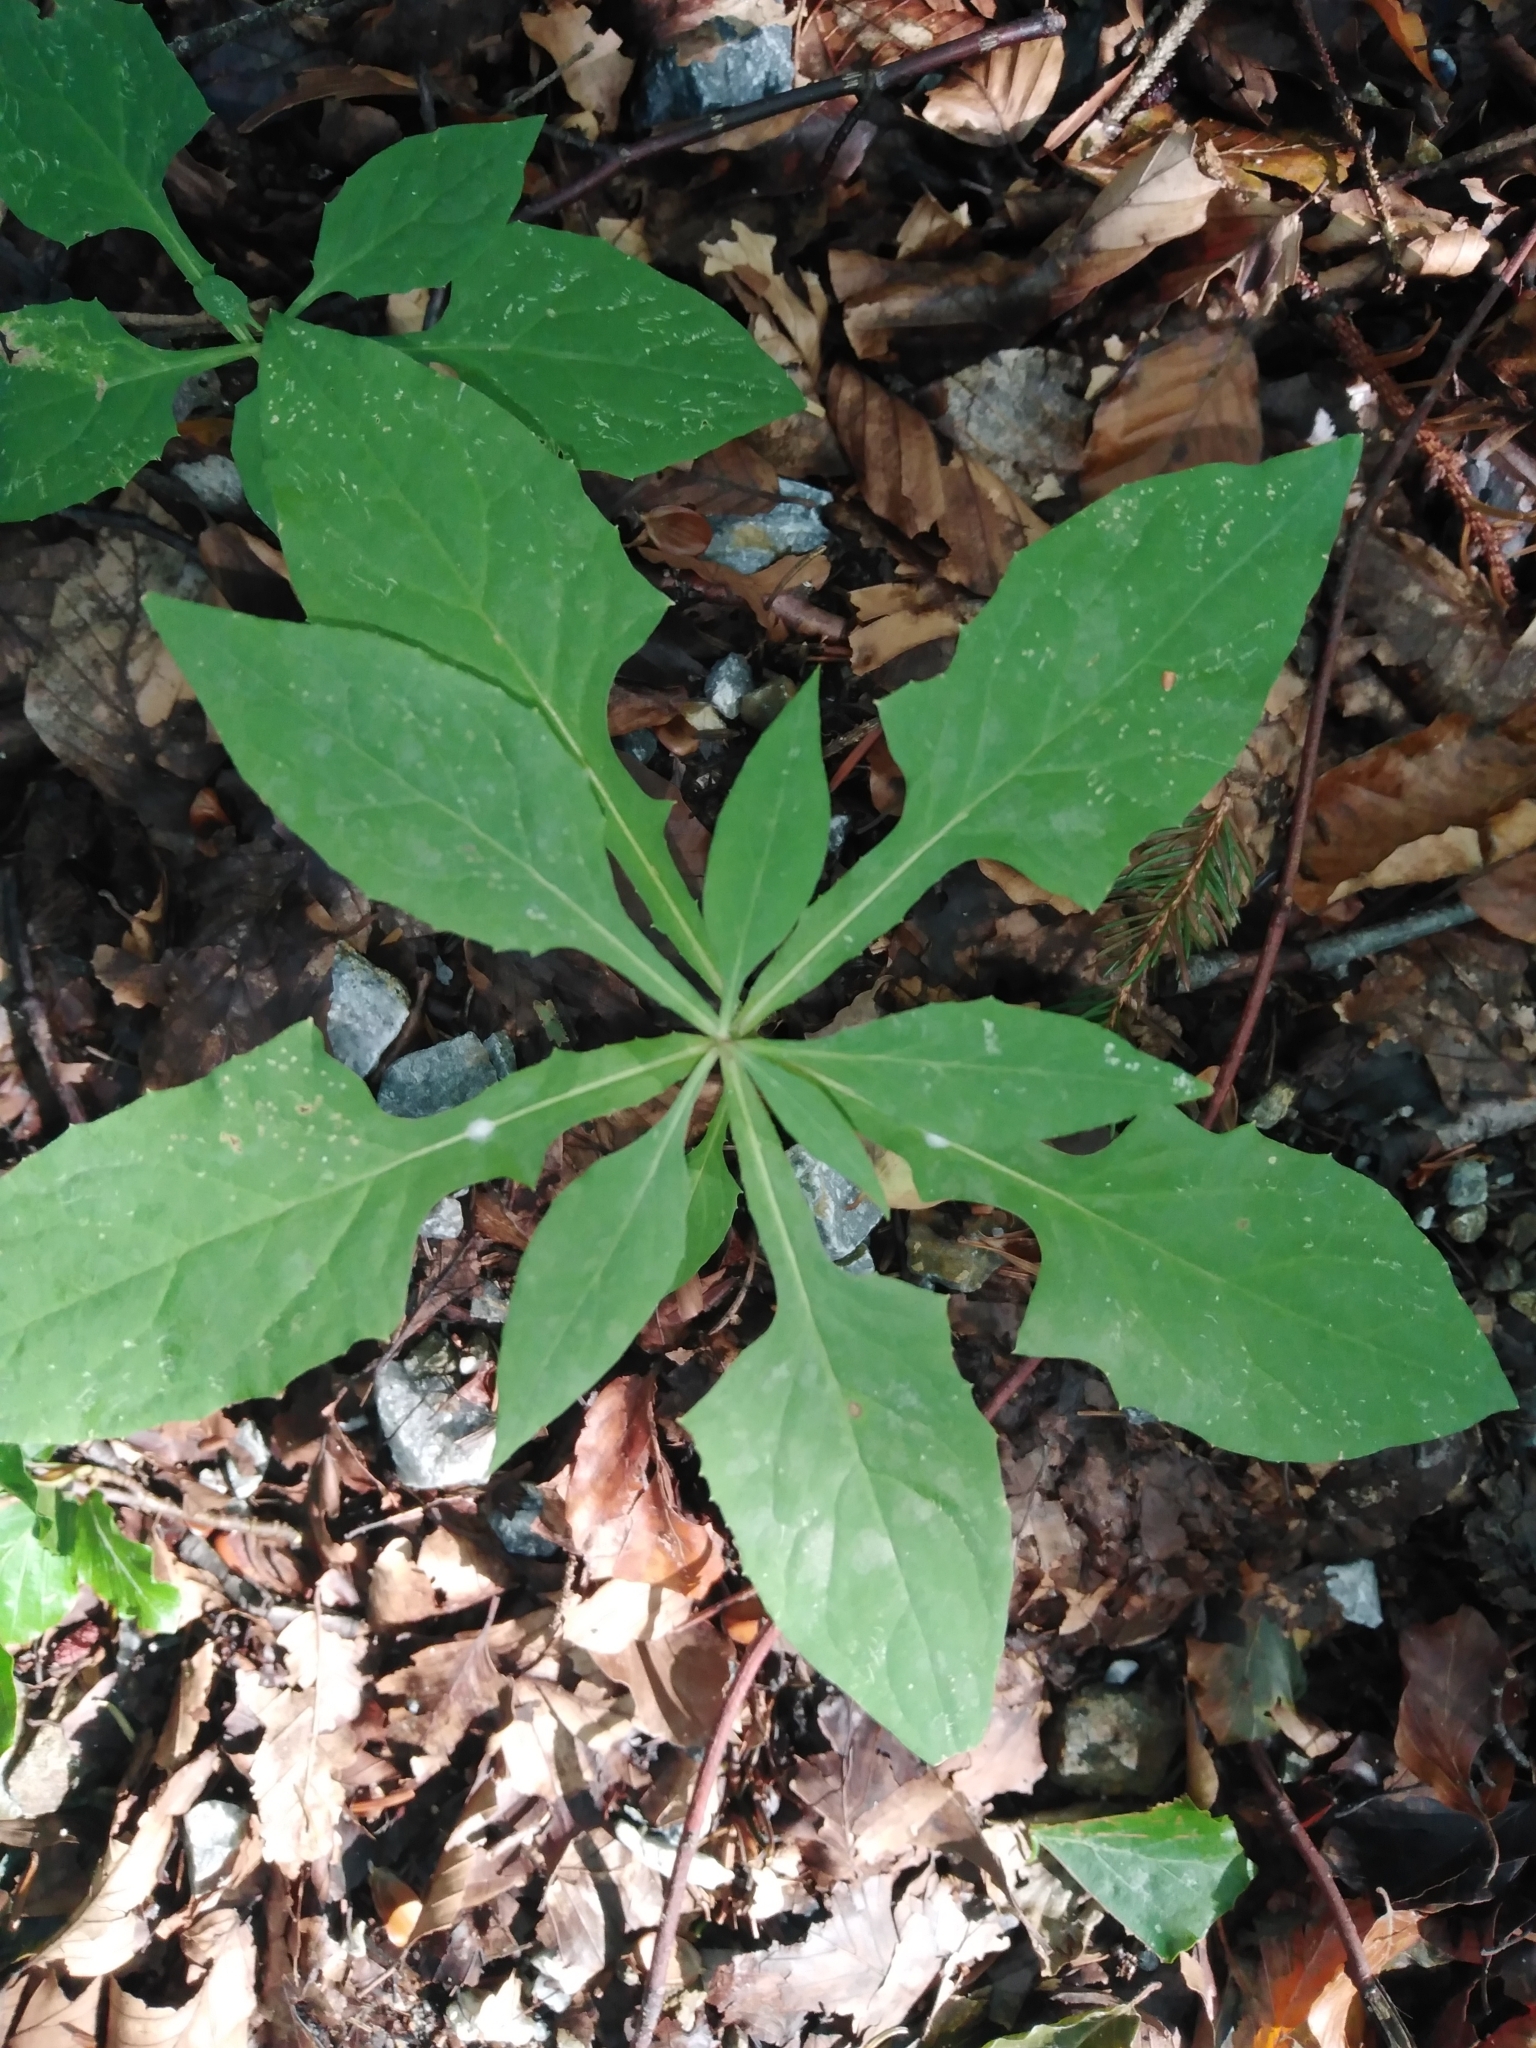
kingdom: Plantae
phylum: Tracheophyta
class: Magnoliopsida
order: Asterales
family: Asteraceae
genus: Prenanthes
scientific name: Prenanthes purpurea
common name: Purple lettuce
